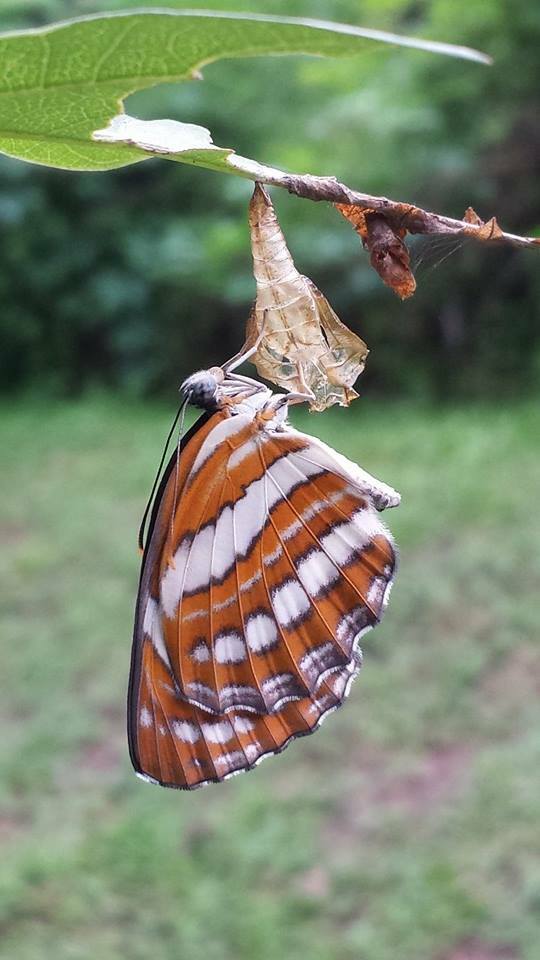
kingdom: Animalia
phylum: Arthropoda
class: Insecta
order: Lepidoptera
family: Nymphalidae
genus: Neptis
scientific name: Neptis hylas
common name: Common sailer
